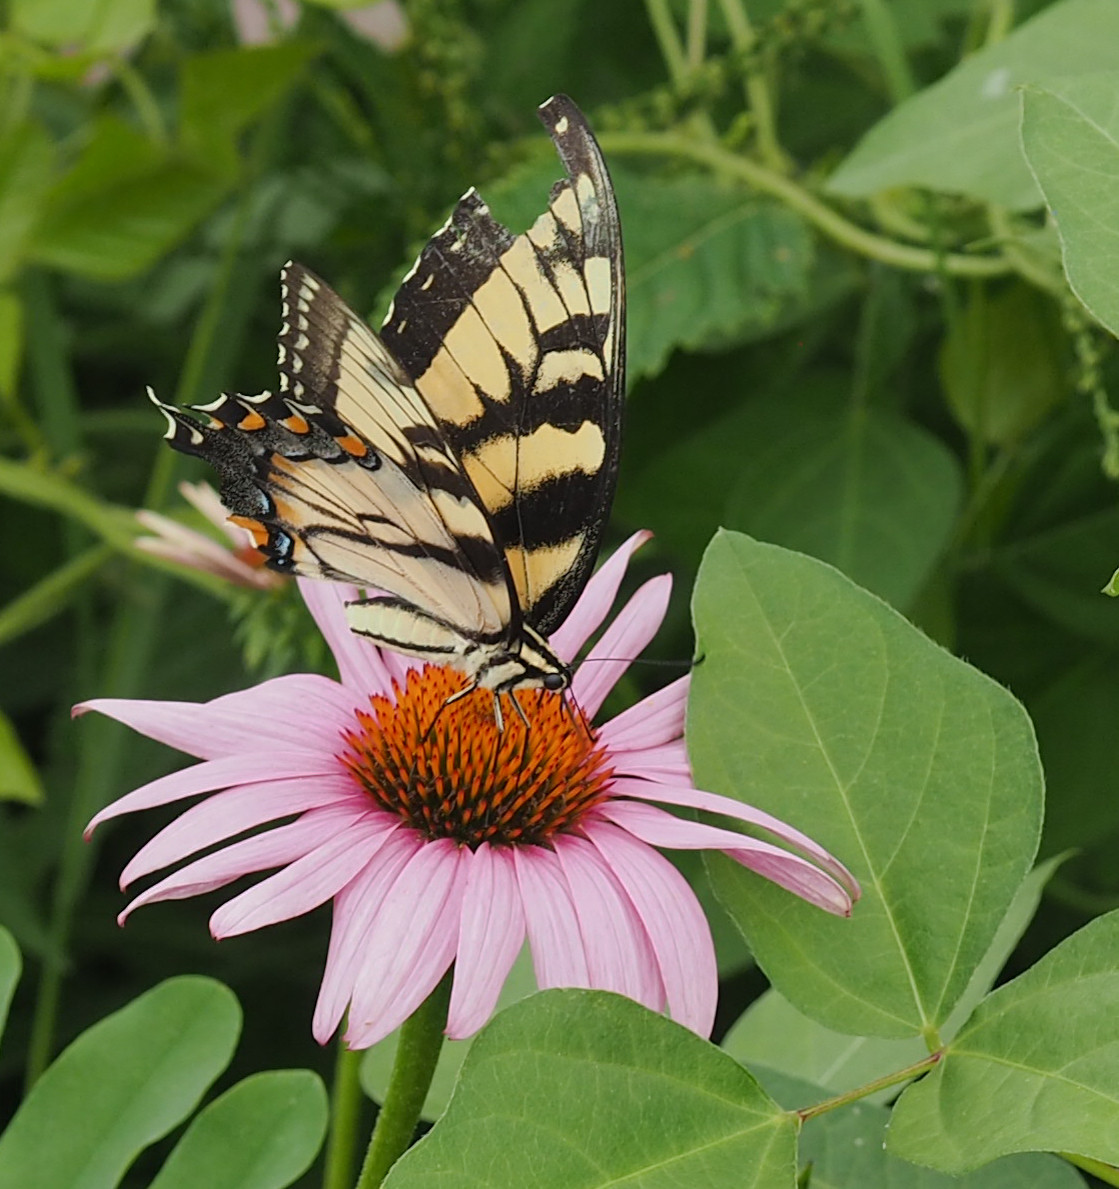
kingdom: Animalia
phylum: Arthropoda
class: Insecta
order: Lepidoptera
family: Papilionidae
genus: Papilio
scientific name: Papilio glaucus
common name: Tiger swallowtail
